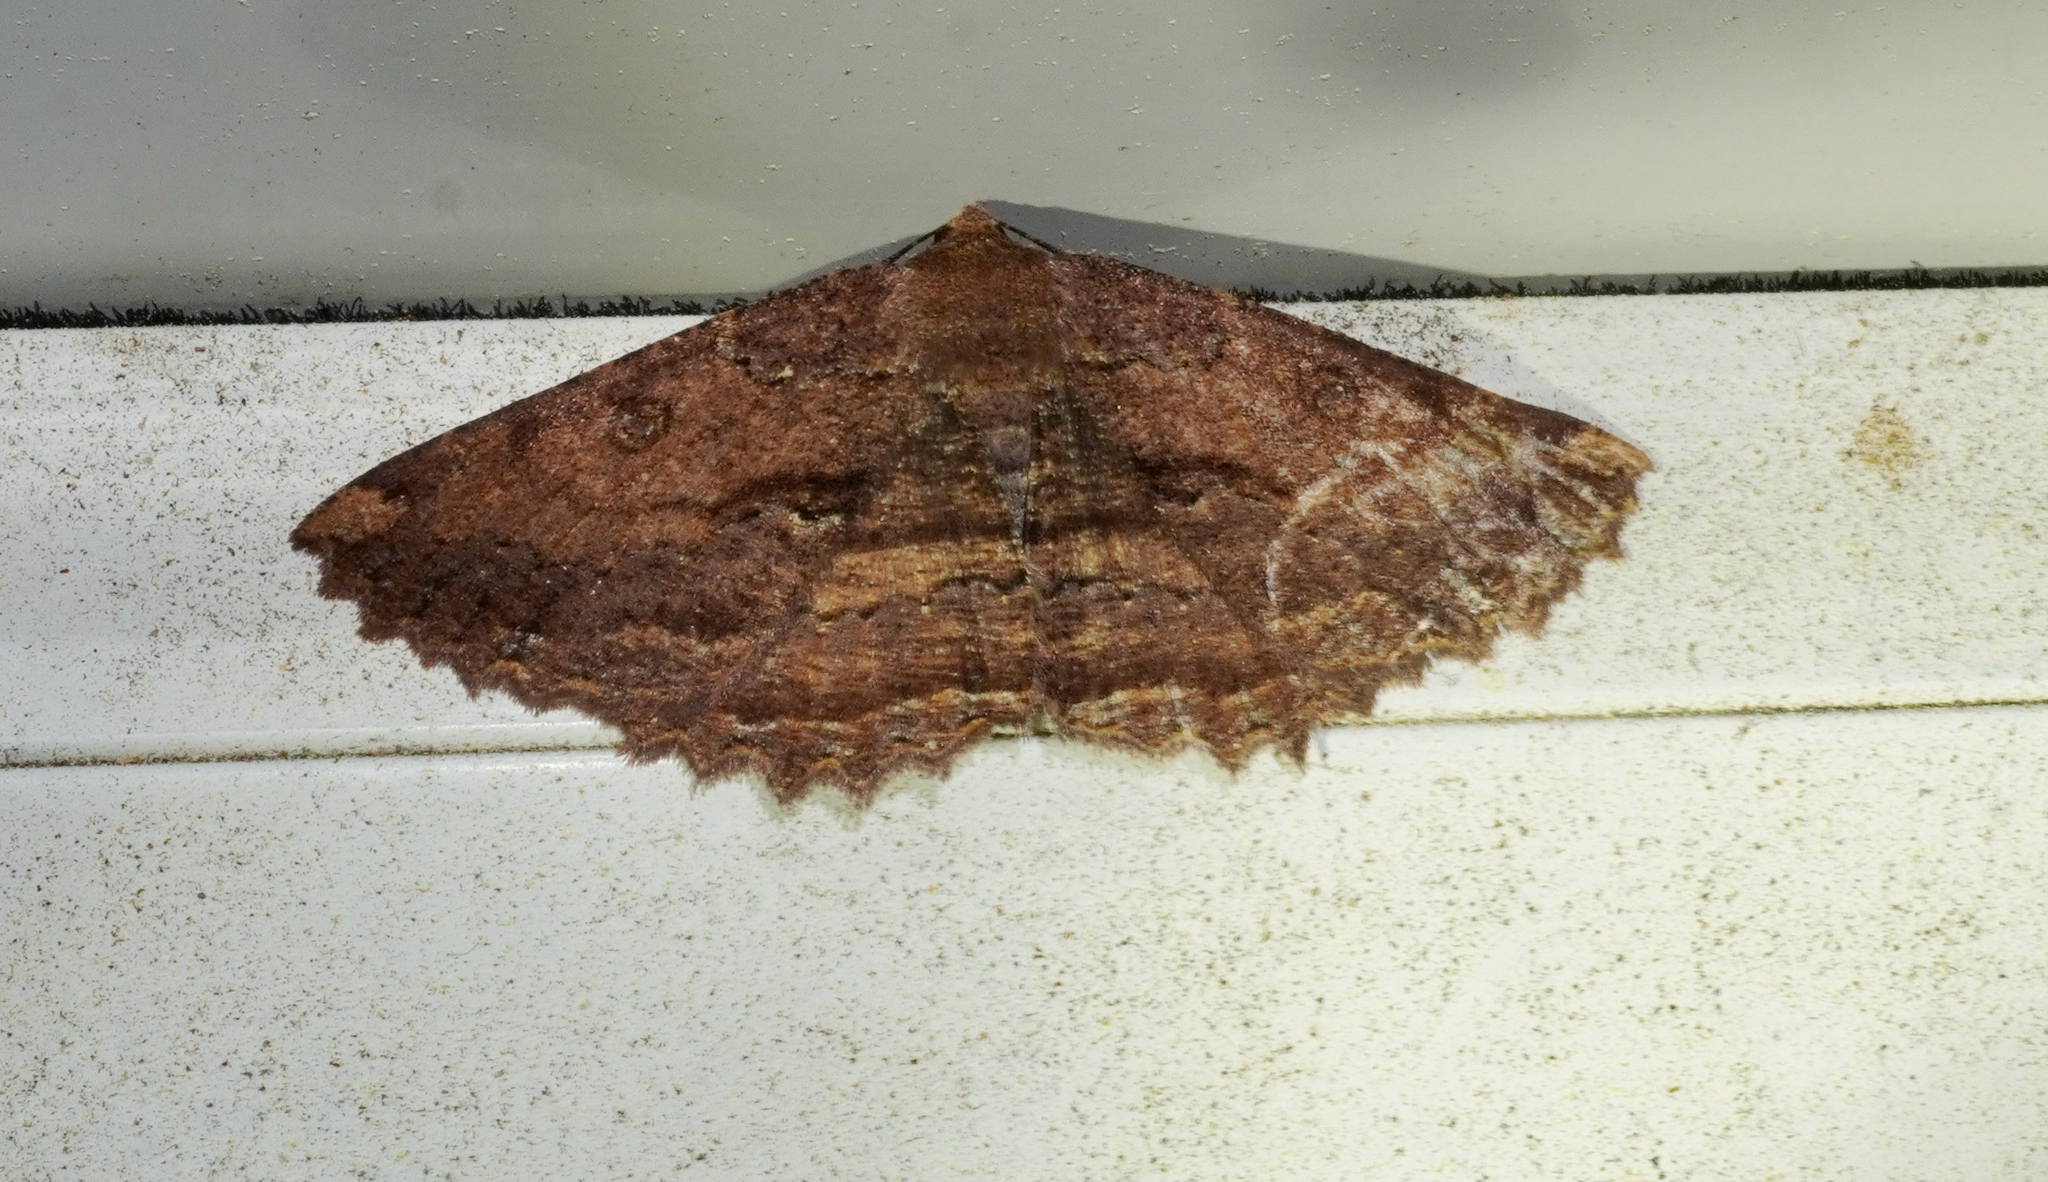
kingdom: Animalia
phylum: Arthropoda
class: Insecta
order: Lepidoptera
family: Geometridae
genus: Gellonia
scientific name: Gellonia dejectaria
